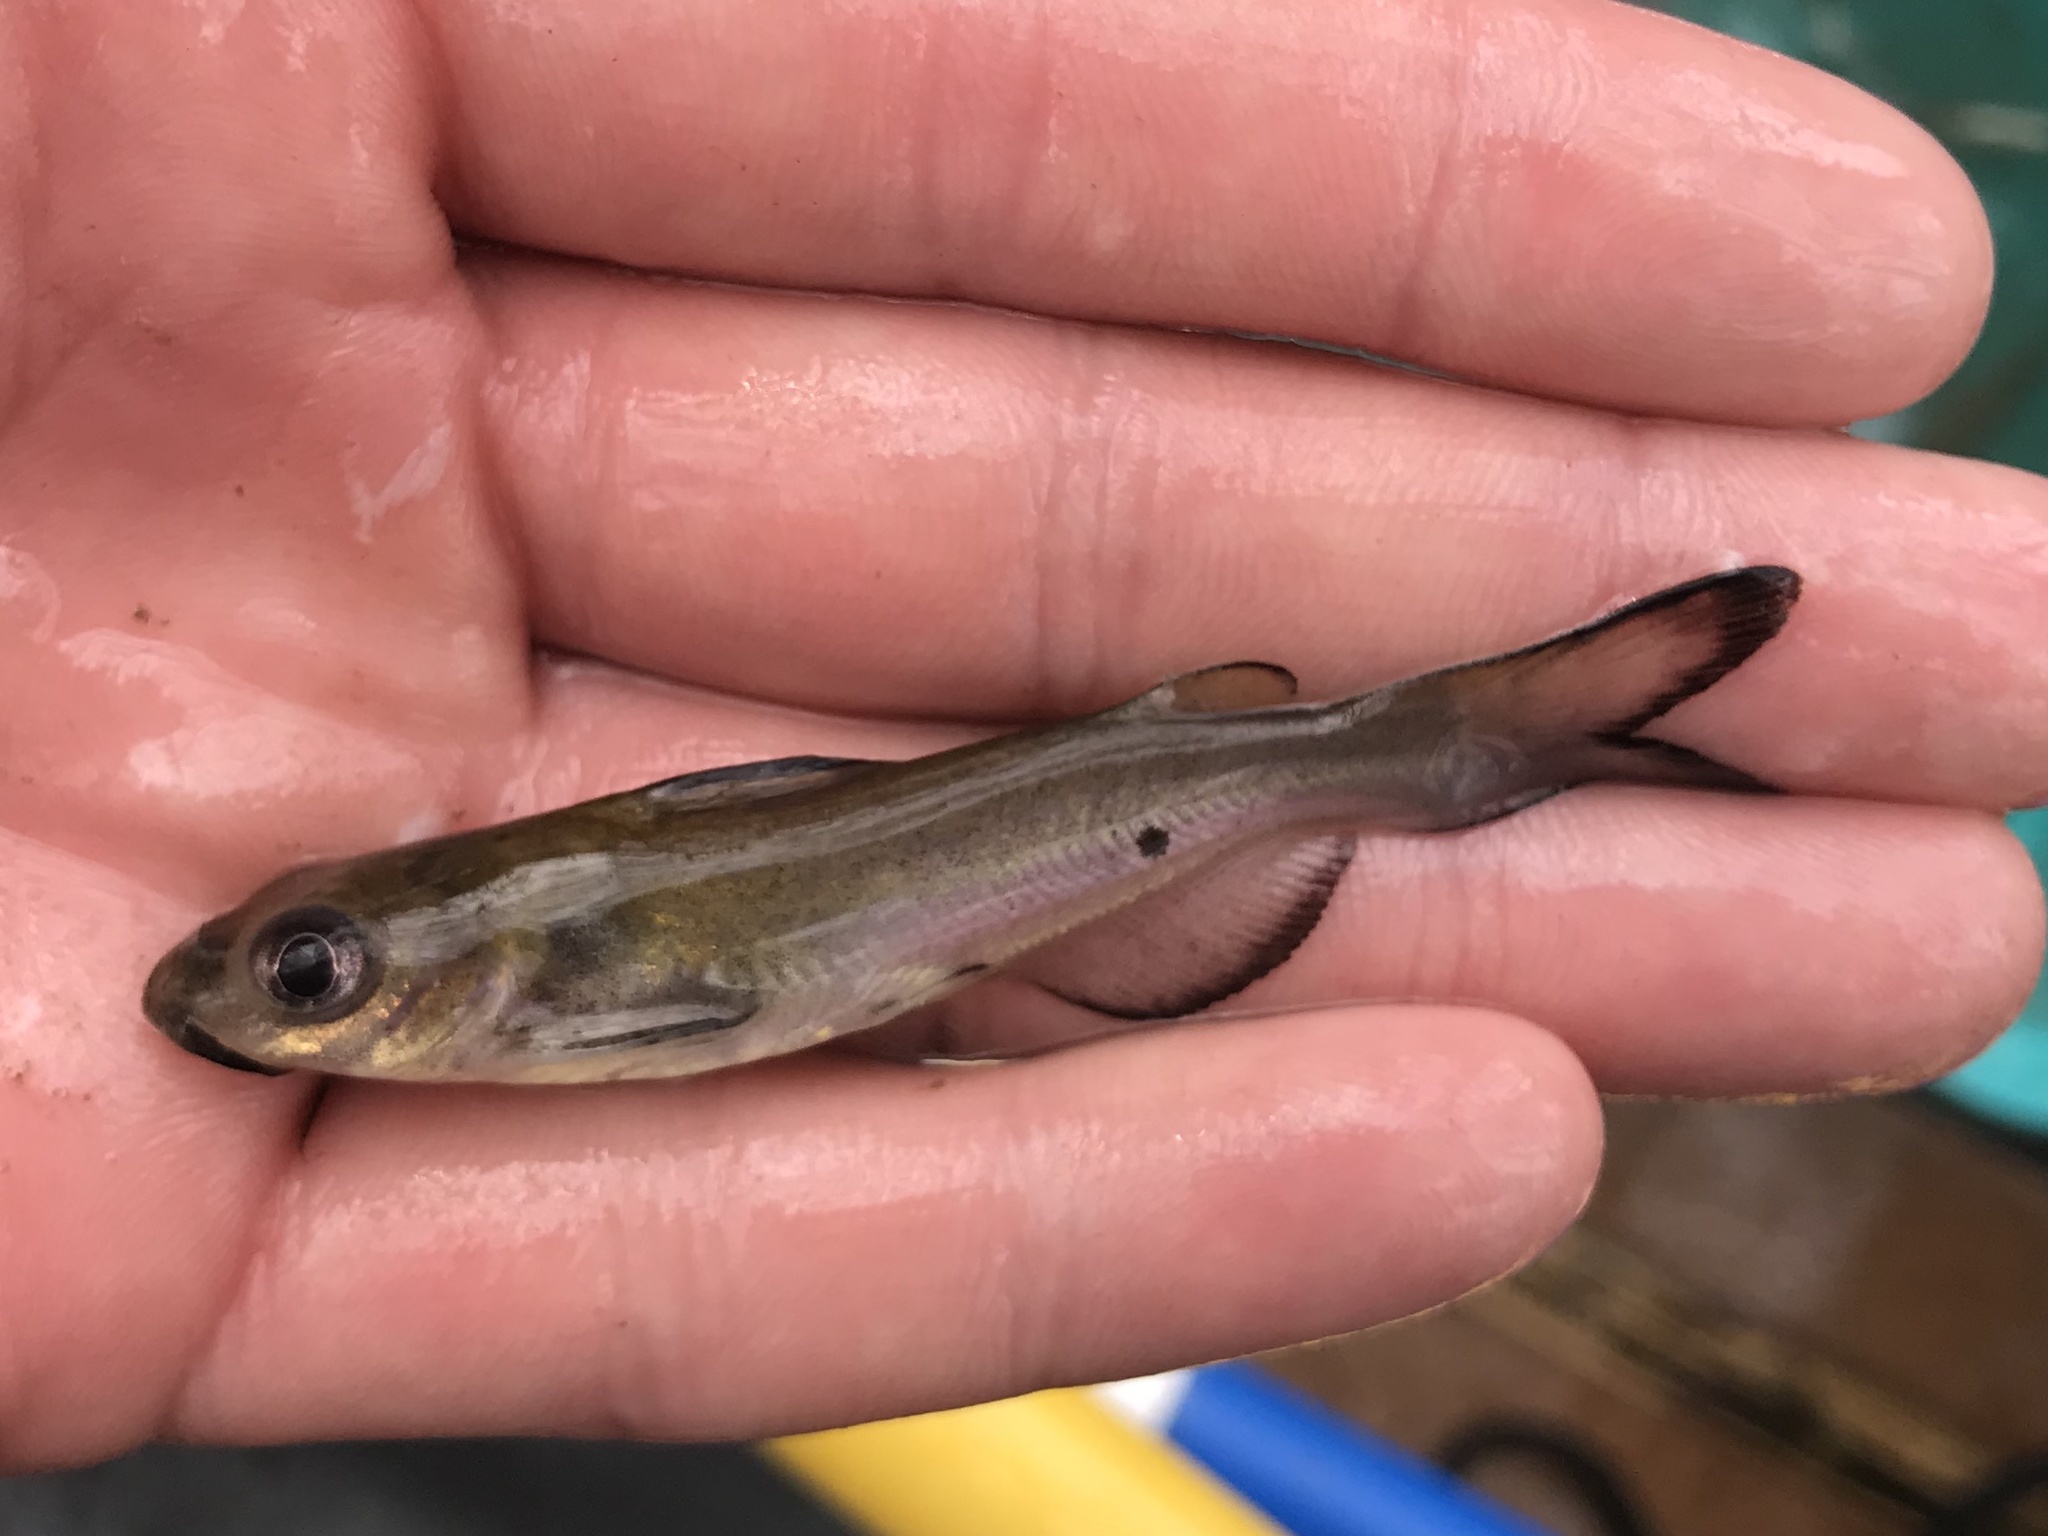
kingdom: Animalia
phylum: Chordata
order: Siluriformes
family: Ictaluridae
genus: Ictalurus
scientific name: Ictalurus punctatus
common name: Channel catfish
